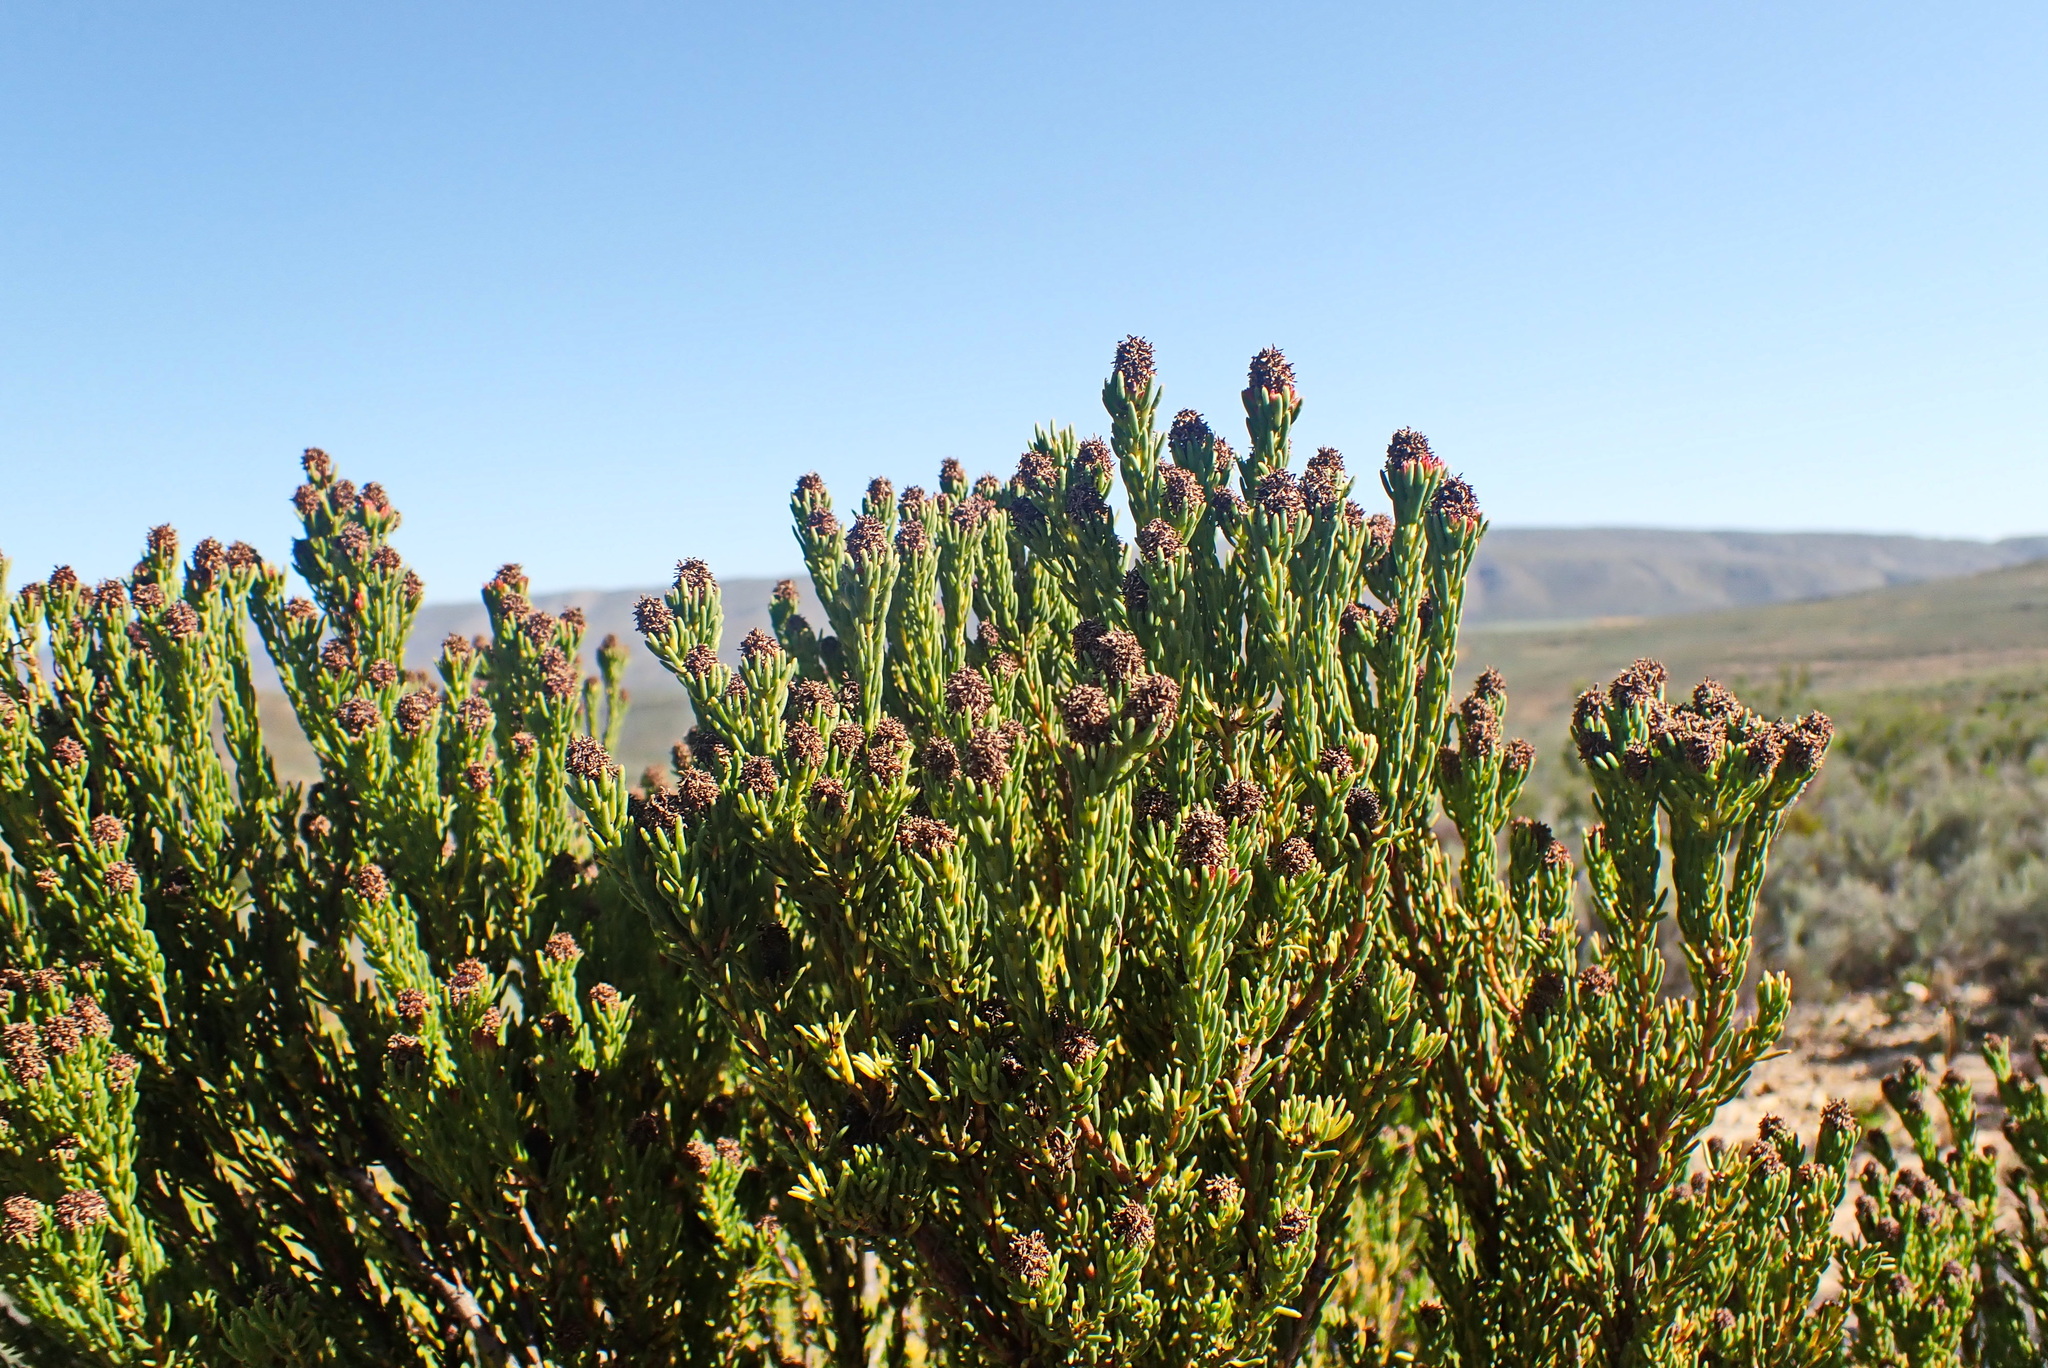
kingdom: Plantae
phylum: Tracheophyta
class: Magnoliopsida
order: Proteales
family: Proteaceae
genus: Leucadendron
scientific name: Leucadendron teretifolium
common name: Needle-leaf conebush
